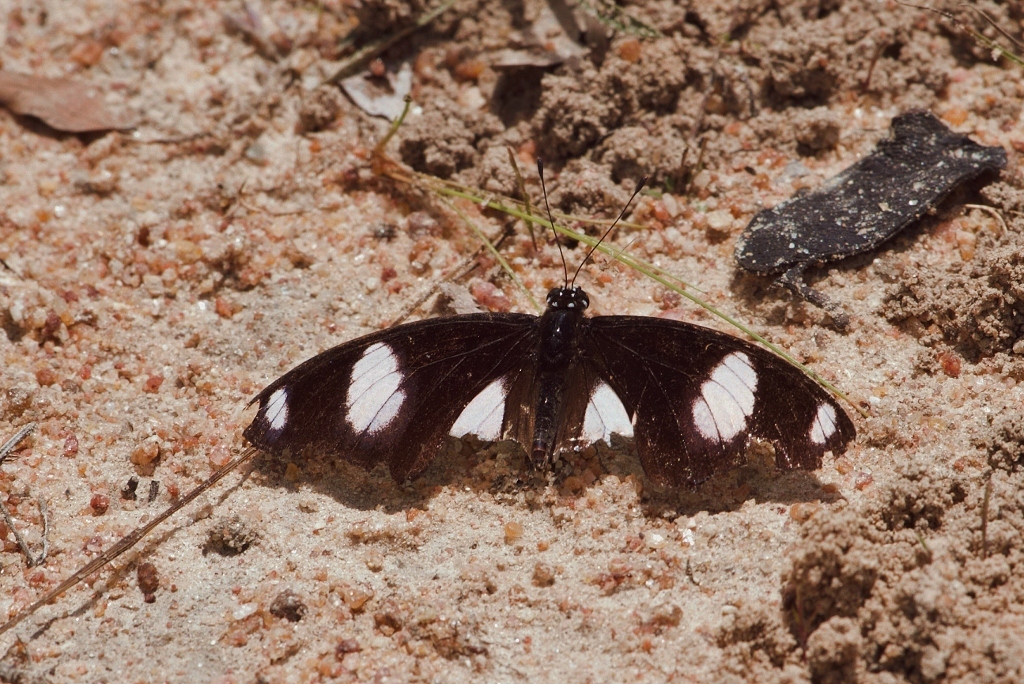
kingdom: Animalia
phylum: Arthropoda
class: Insecta
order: Lepidoptera
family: Nymphalidae
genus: Hypolimnas
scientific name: Hypolimnas misippus
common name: False plain tiger
